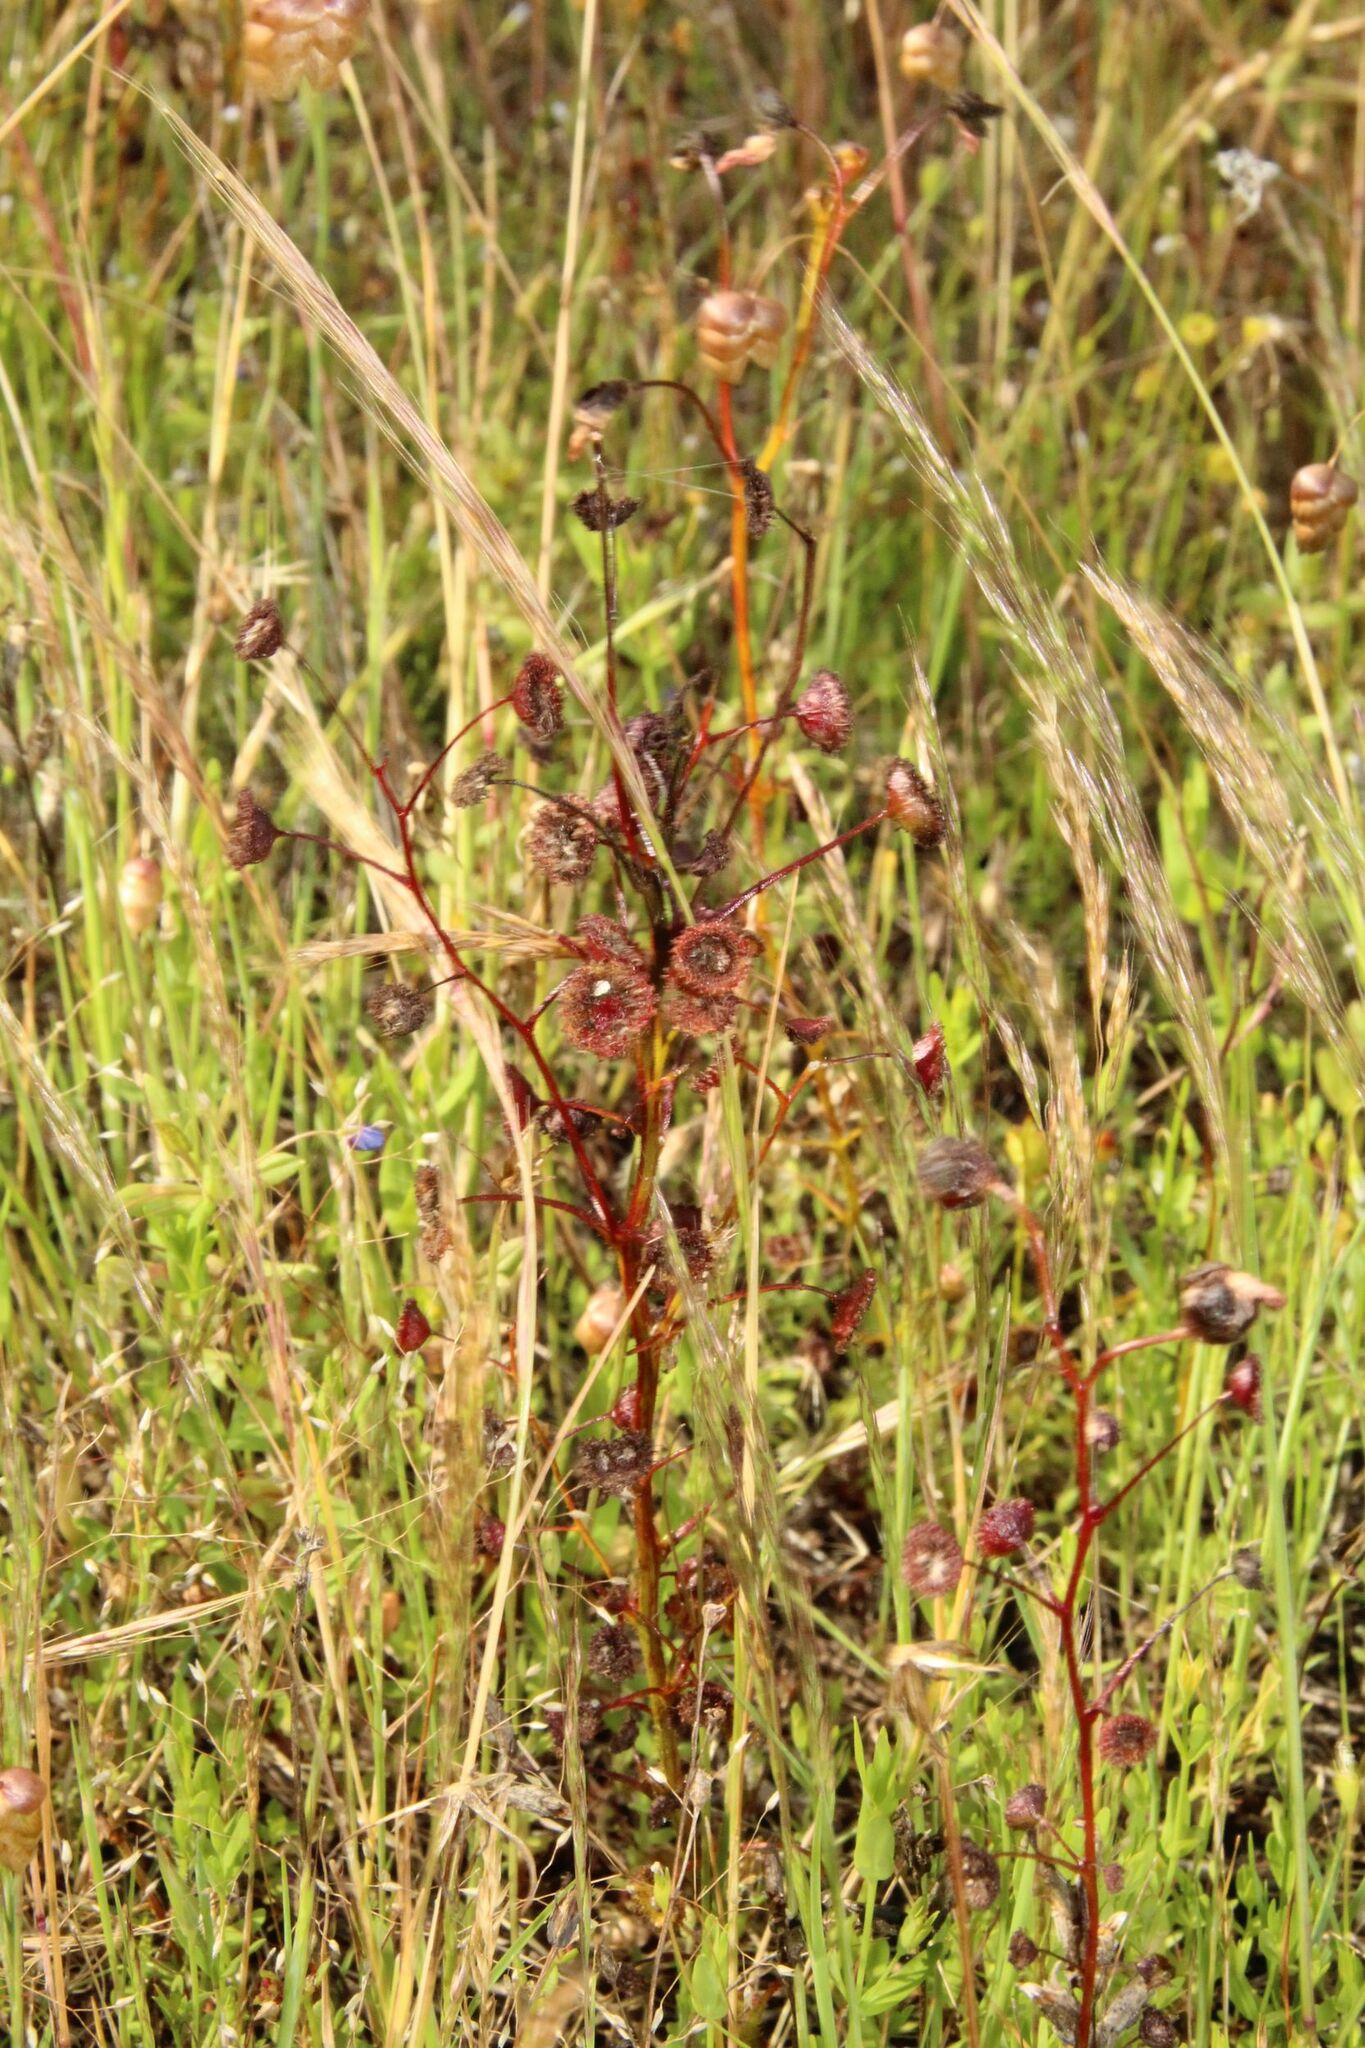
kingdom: Plantae
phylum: Tracheophyta
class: Magnoliopsida
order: Caryophyllales
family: Droseraceae
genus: Drosera
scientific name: Drosera stricticaulis
